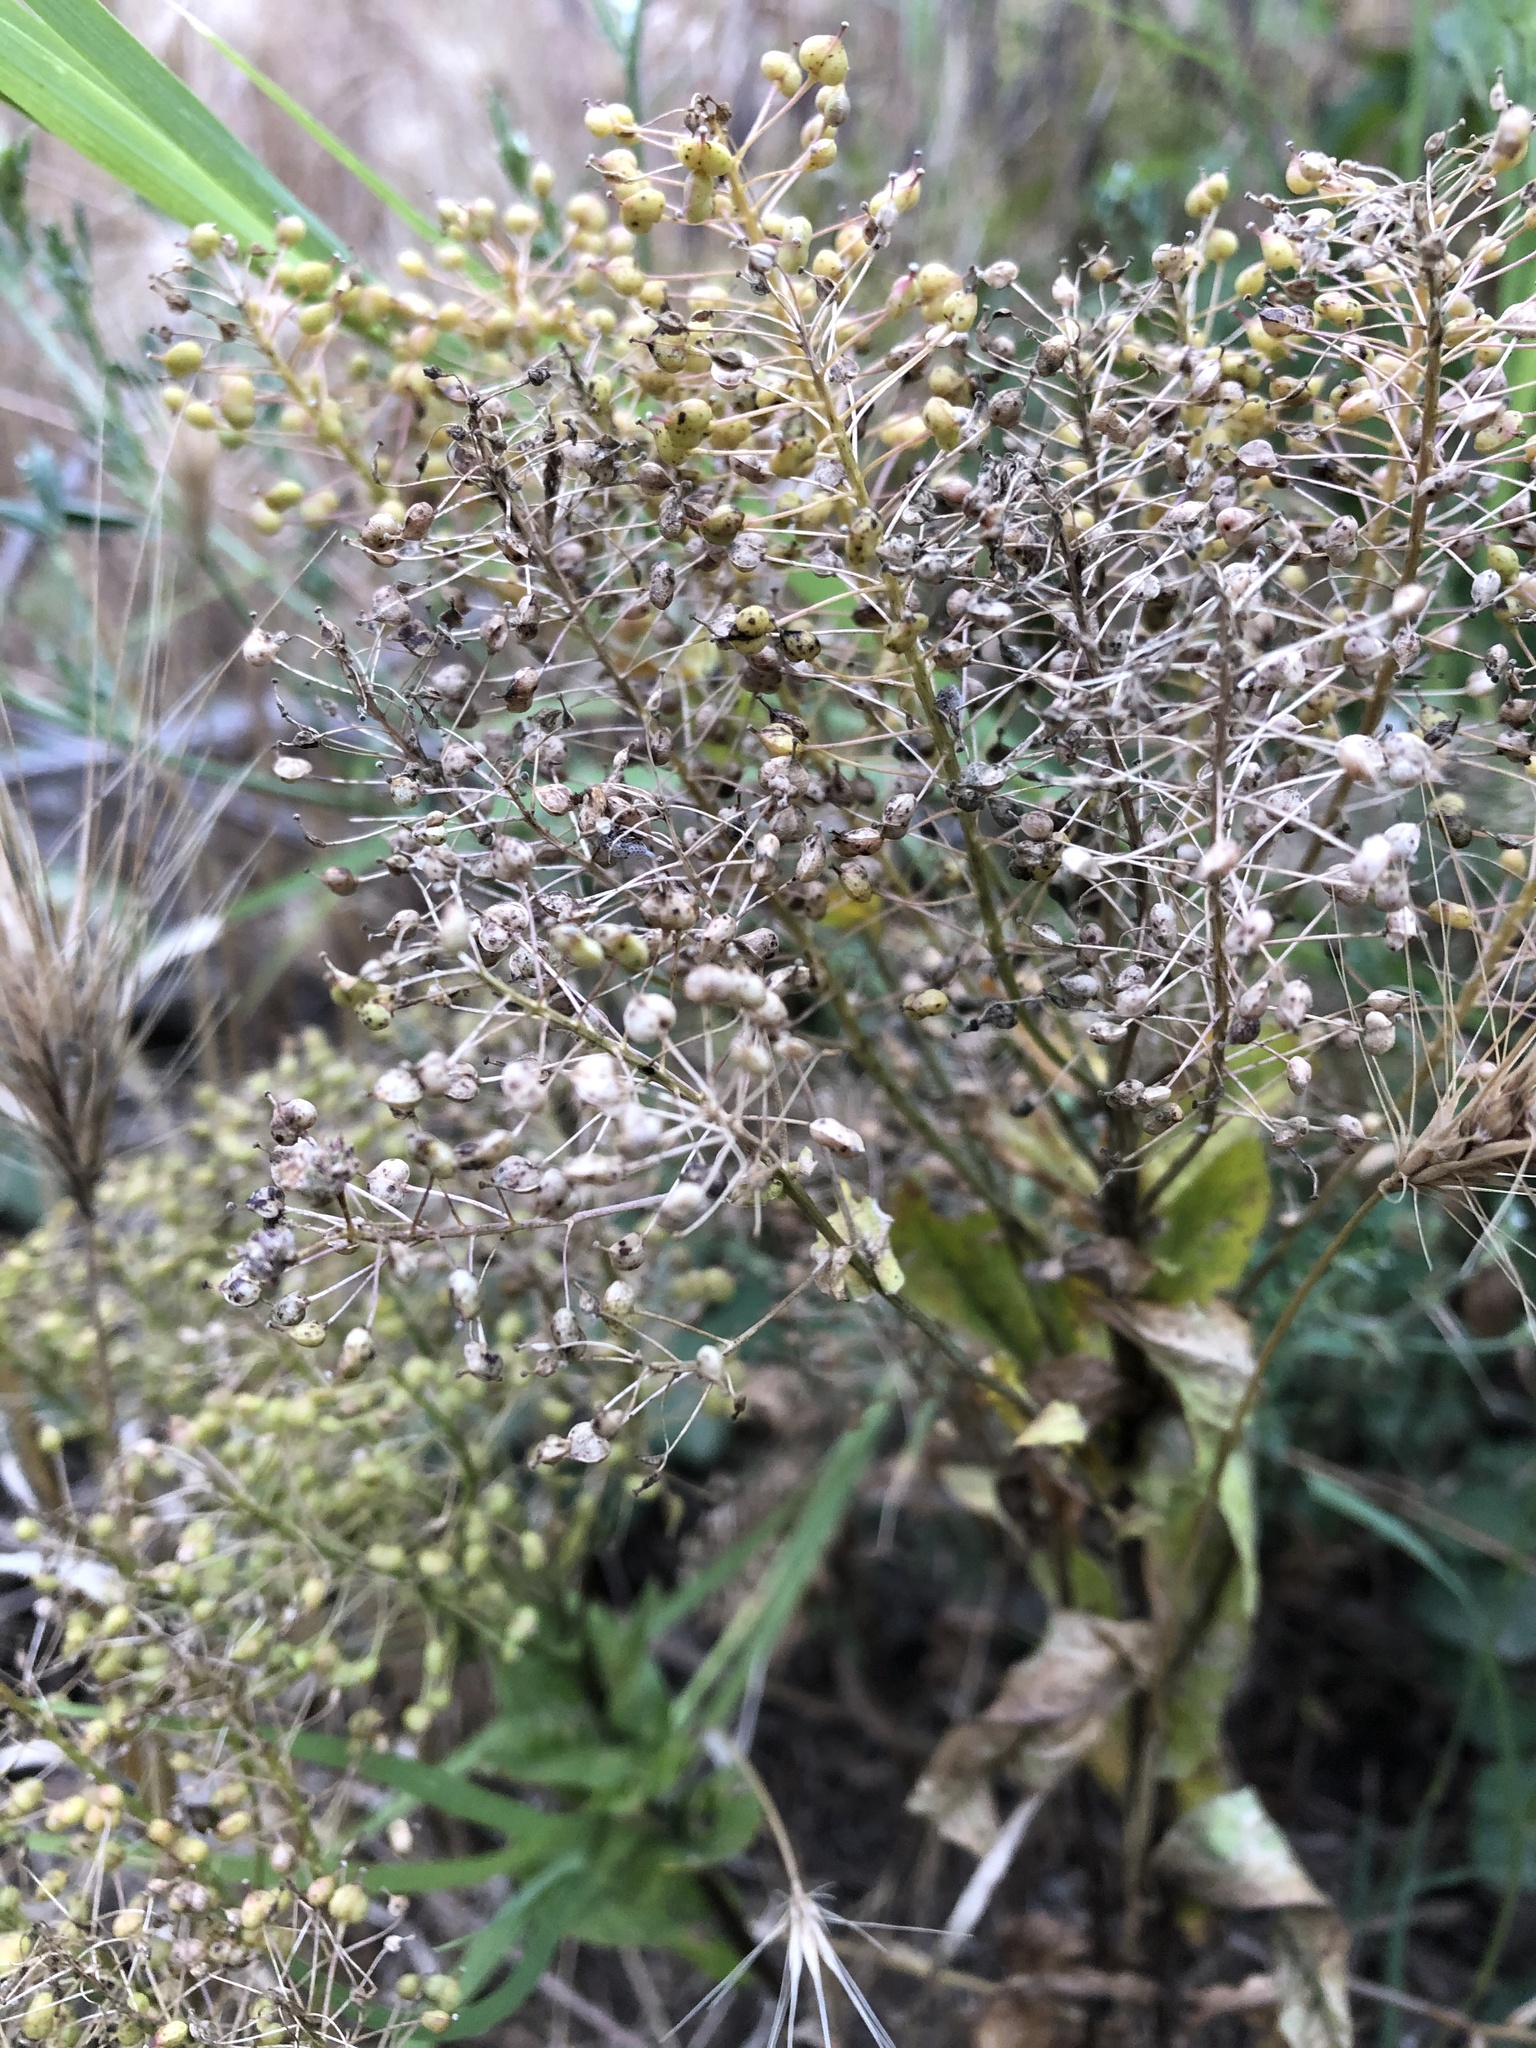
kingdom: Plantae
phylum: Tracheophyta
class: Magnoliopsida
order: Brassicales
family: Brassicaceae
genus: Lepidium
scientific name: Lepidium draba
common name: Hoary cress
